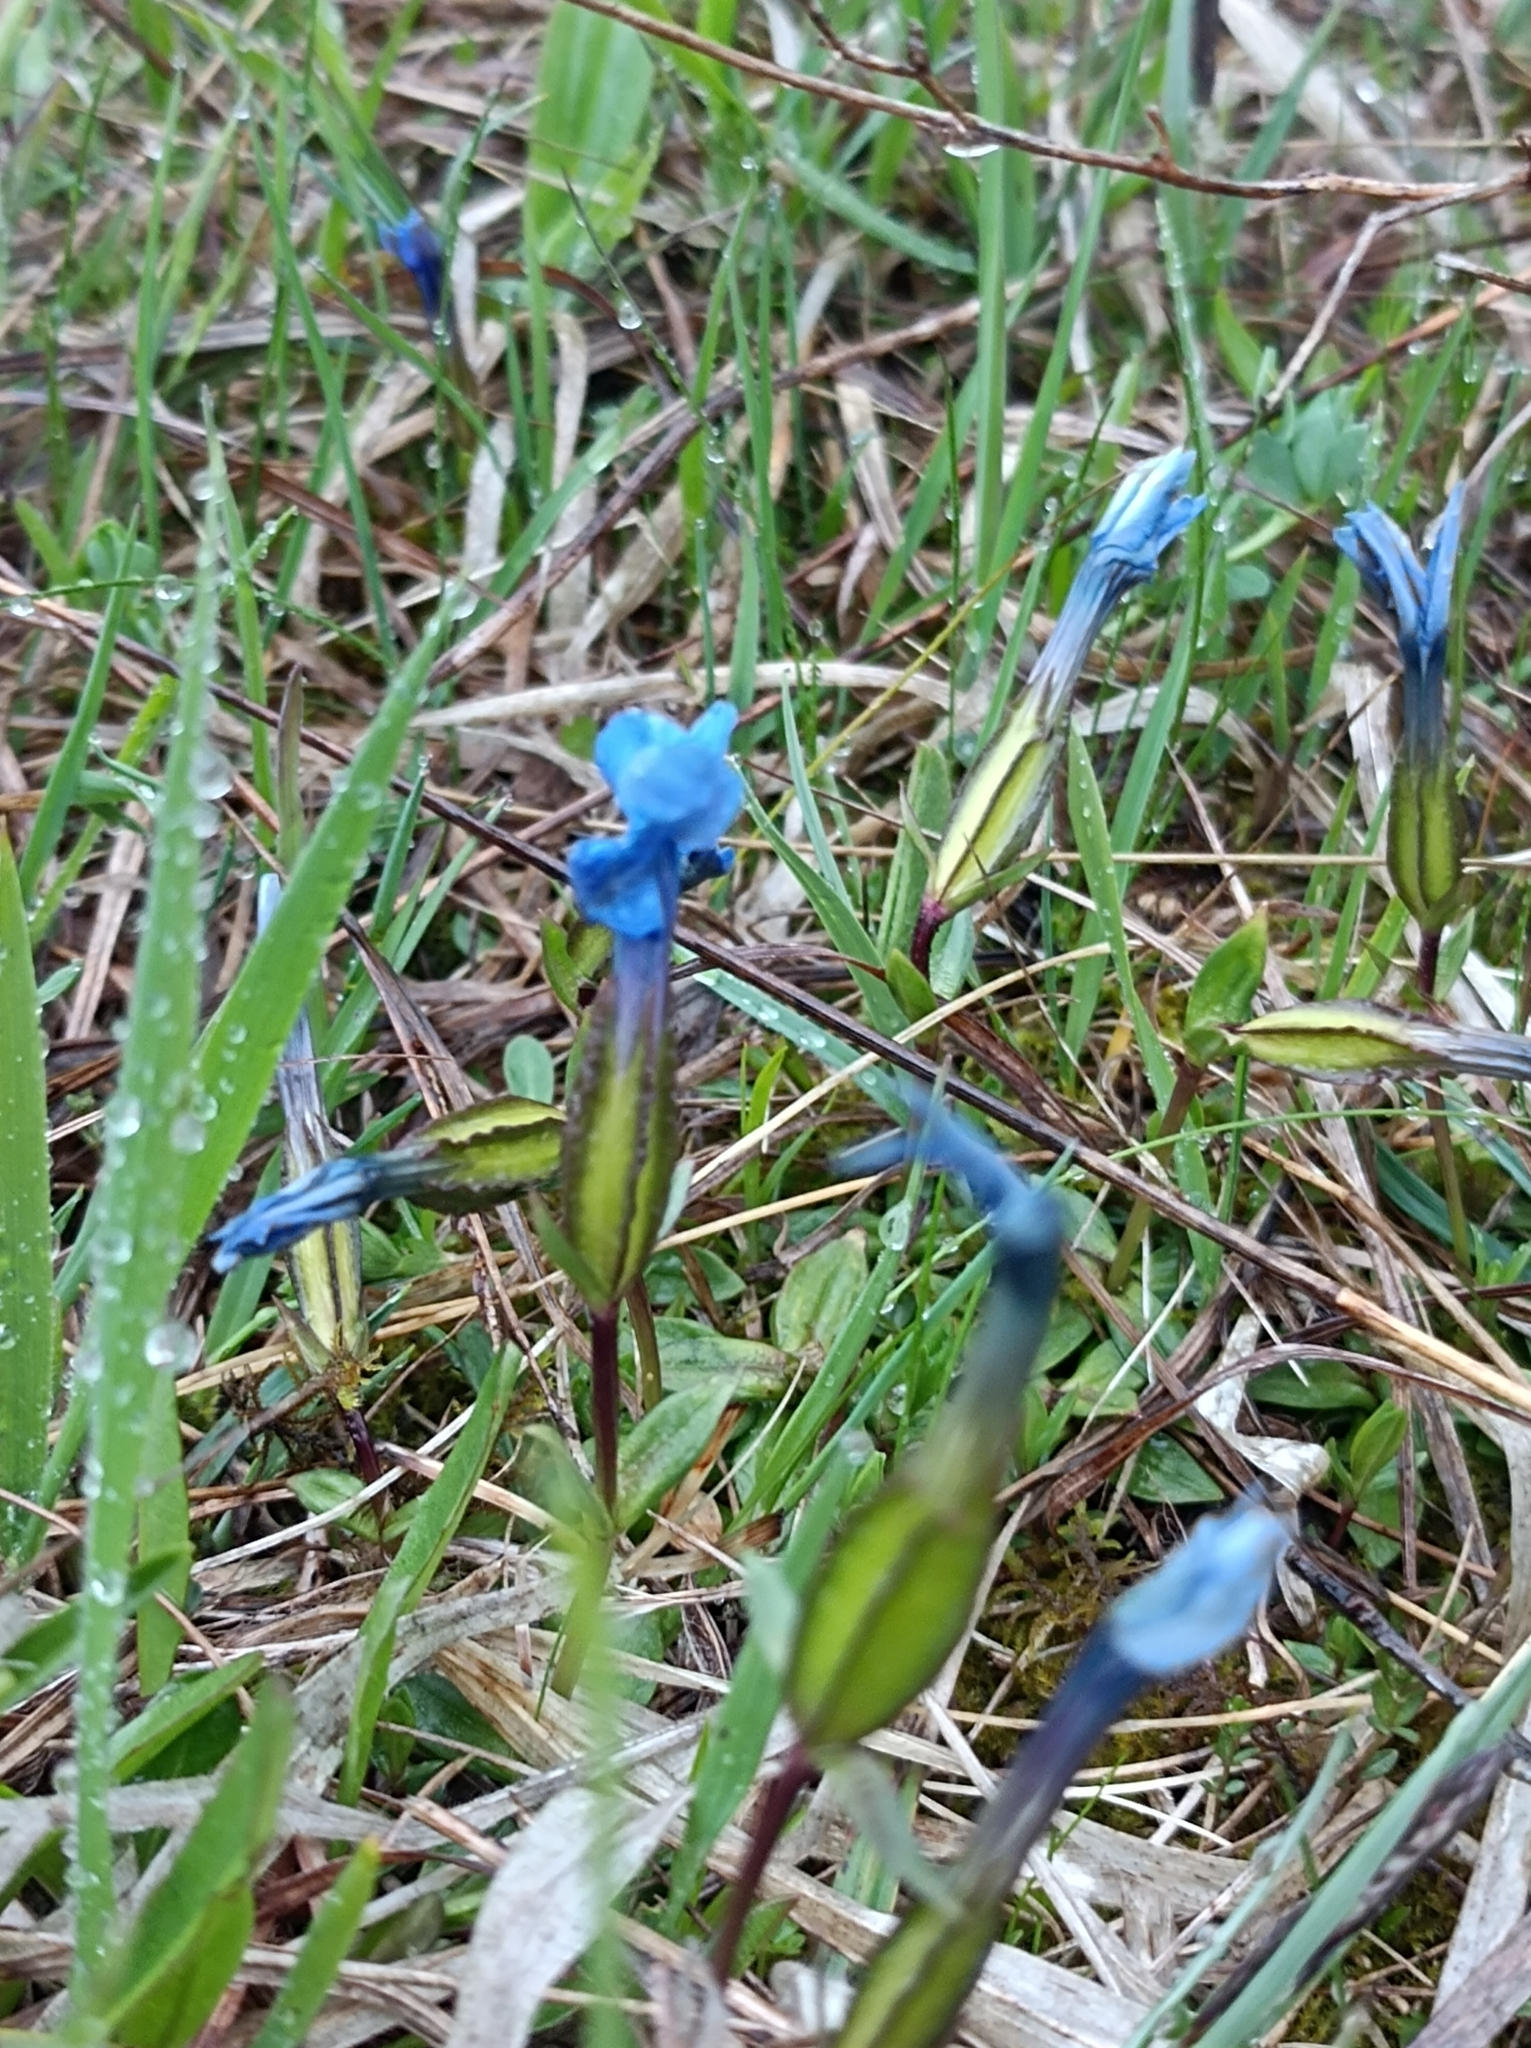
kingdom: Plantae
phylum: Tracheophyta
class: Magnoliopsida
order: Gentianales
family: Gentianaceae
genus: Gentiana
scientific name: Gentiana verna
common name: Spring gentian
